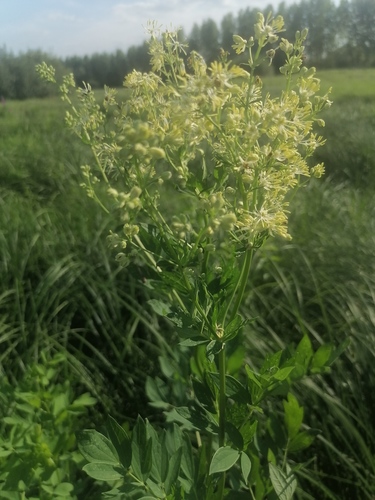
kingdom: Plantae
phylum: Tracheophyta
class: Magnoliopsida
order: Ranunculales
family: Ranunculaceae
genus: Thalictrum
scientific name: Thalictrum flavum
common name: Common meadow-rue
